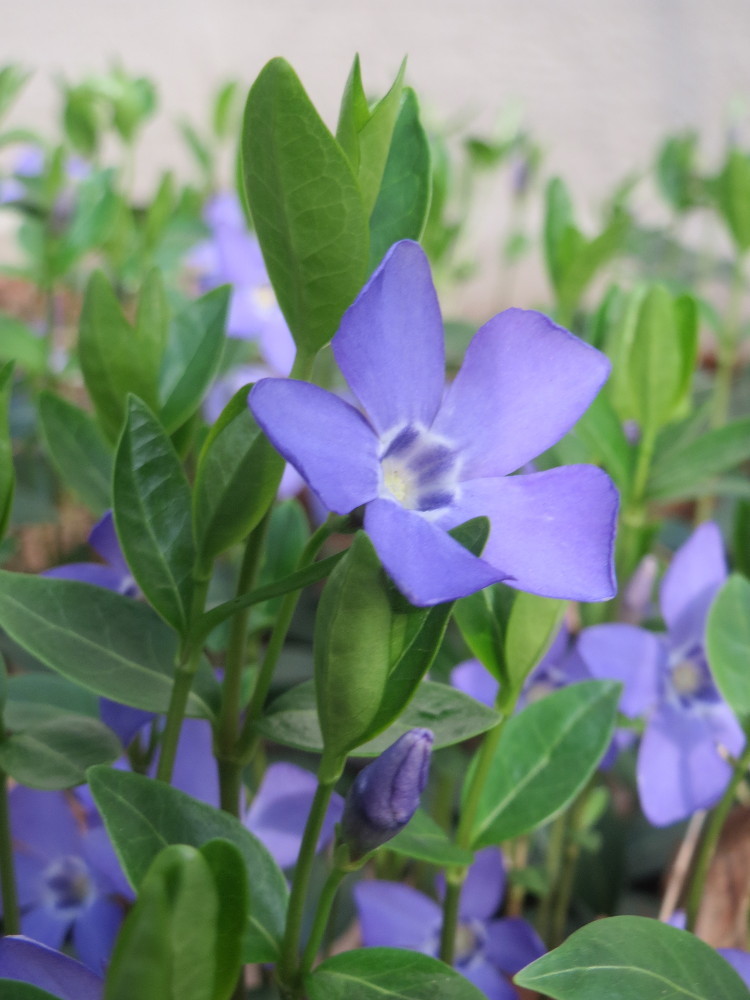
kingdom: Plantae
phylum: Tracheophyta
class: Magnoliopsida
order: Gentianales
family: Apocynaceae
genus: Vinca
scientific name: Vinca minor
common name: Lesser periwinkle
